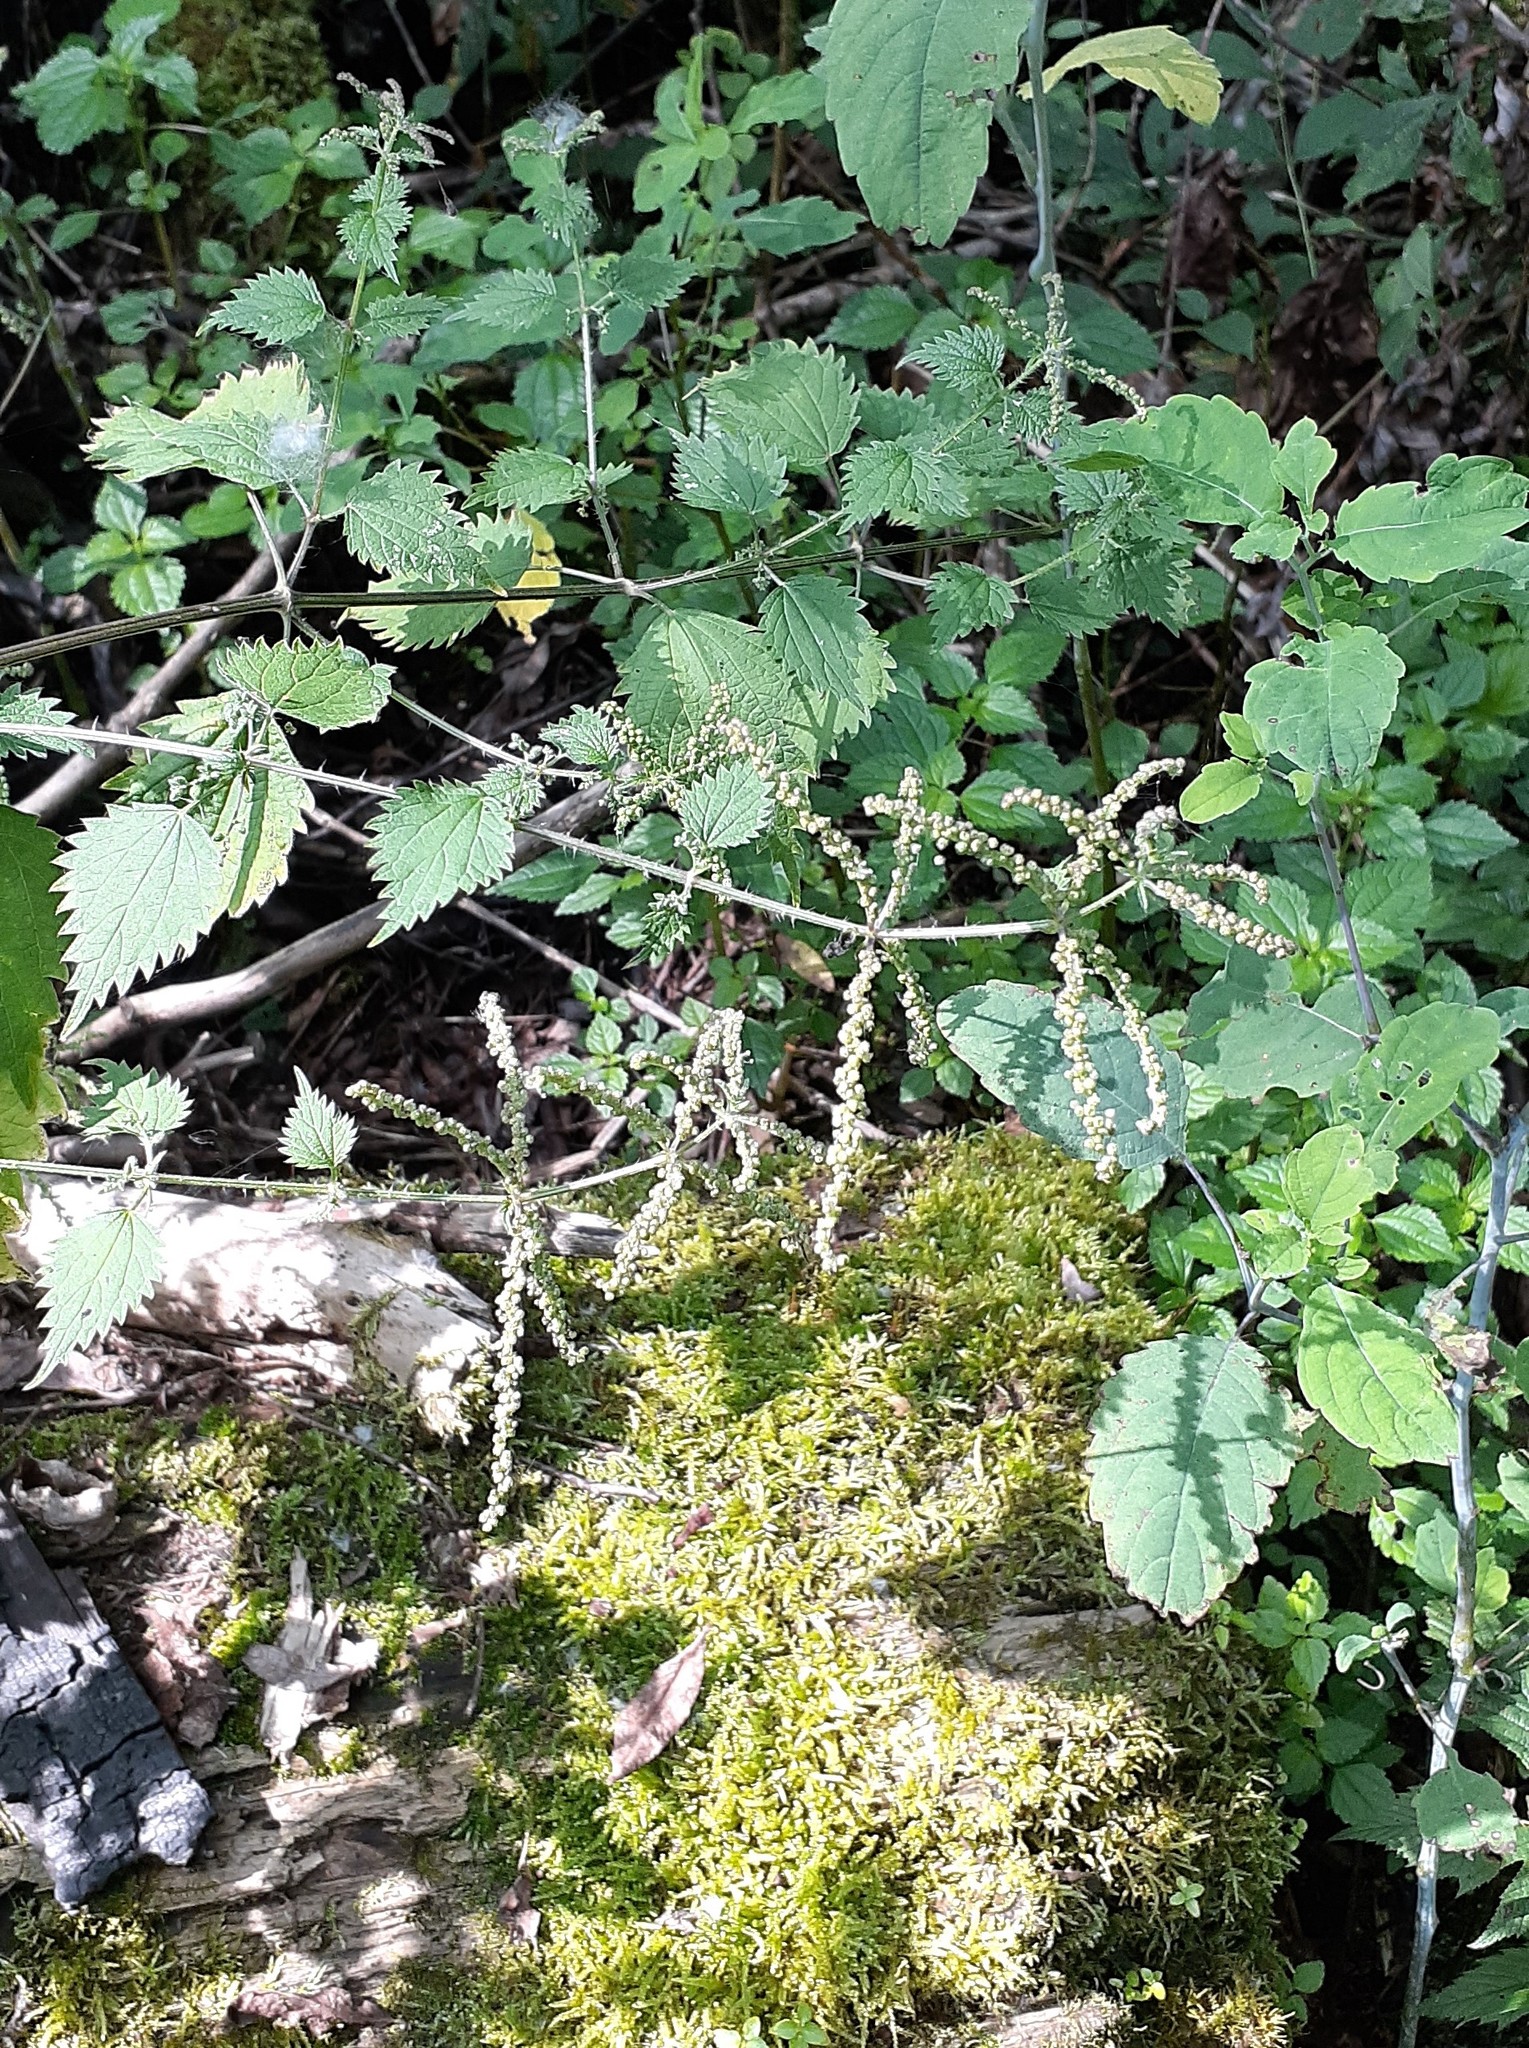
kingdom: Plantae
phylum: Tracheophyta
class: Magnoliopsida
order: Rosales
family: Urticaceae
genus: Urtica
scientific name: Urtica thunbergiana
